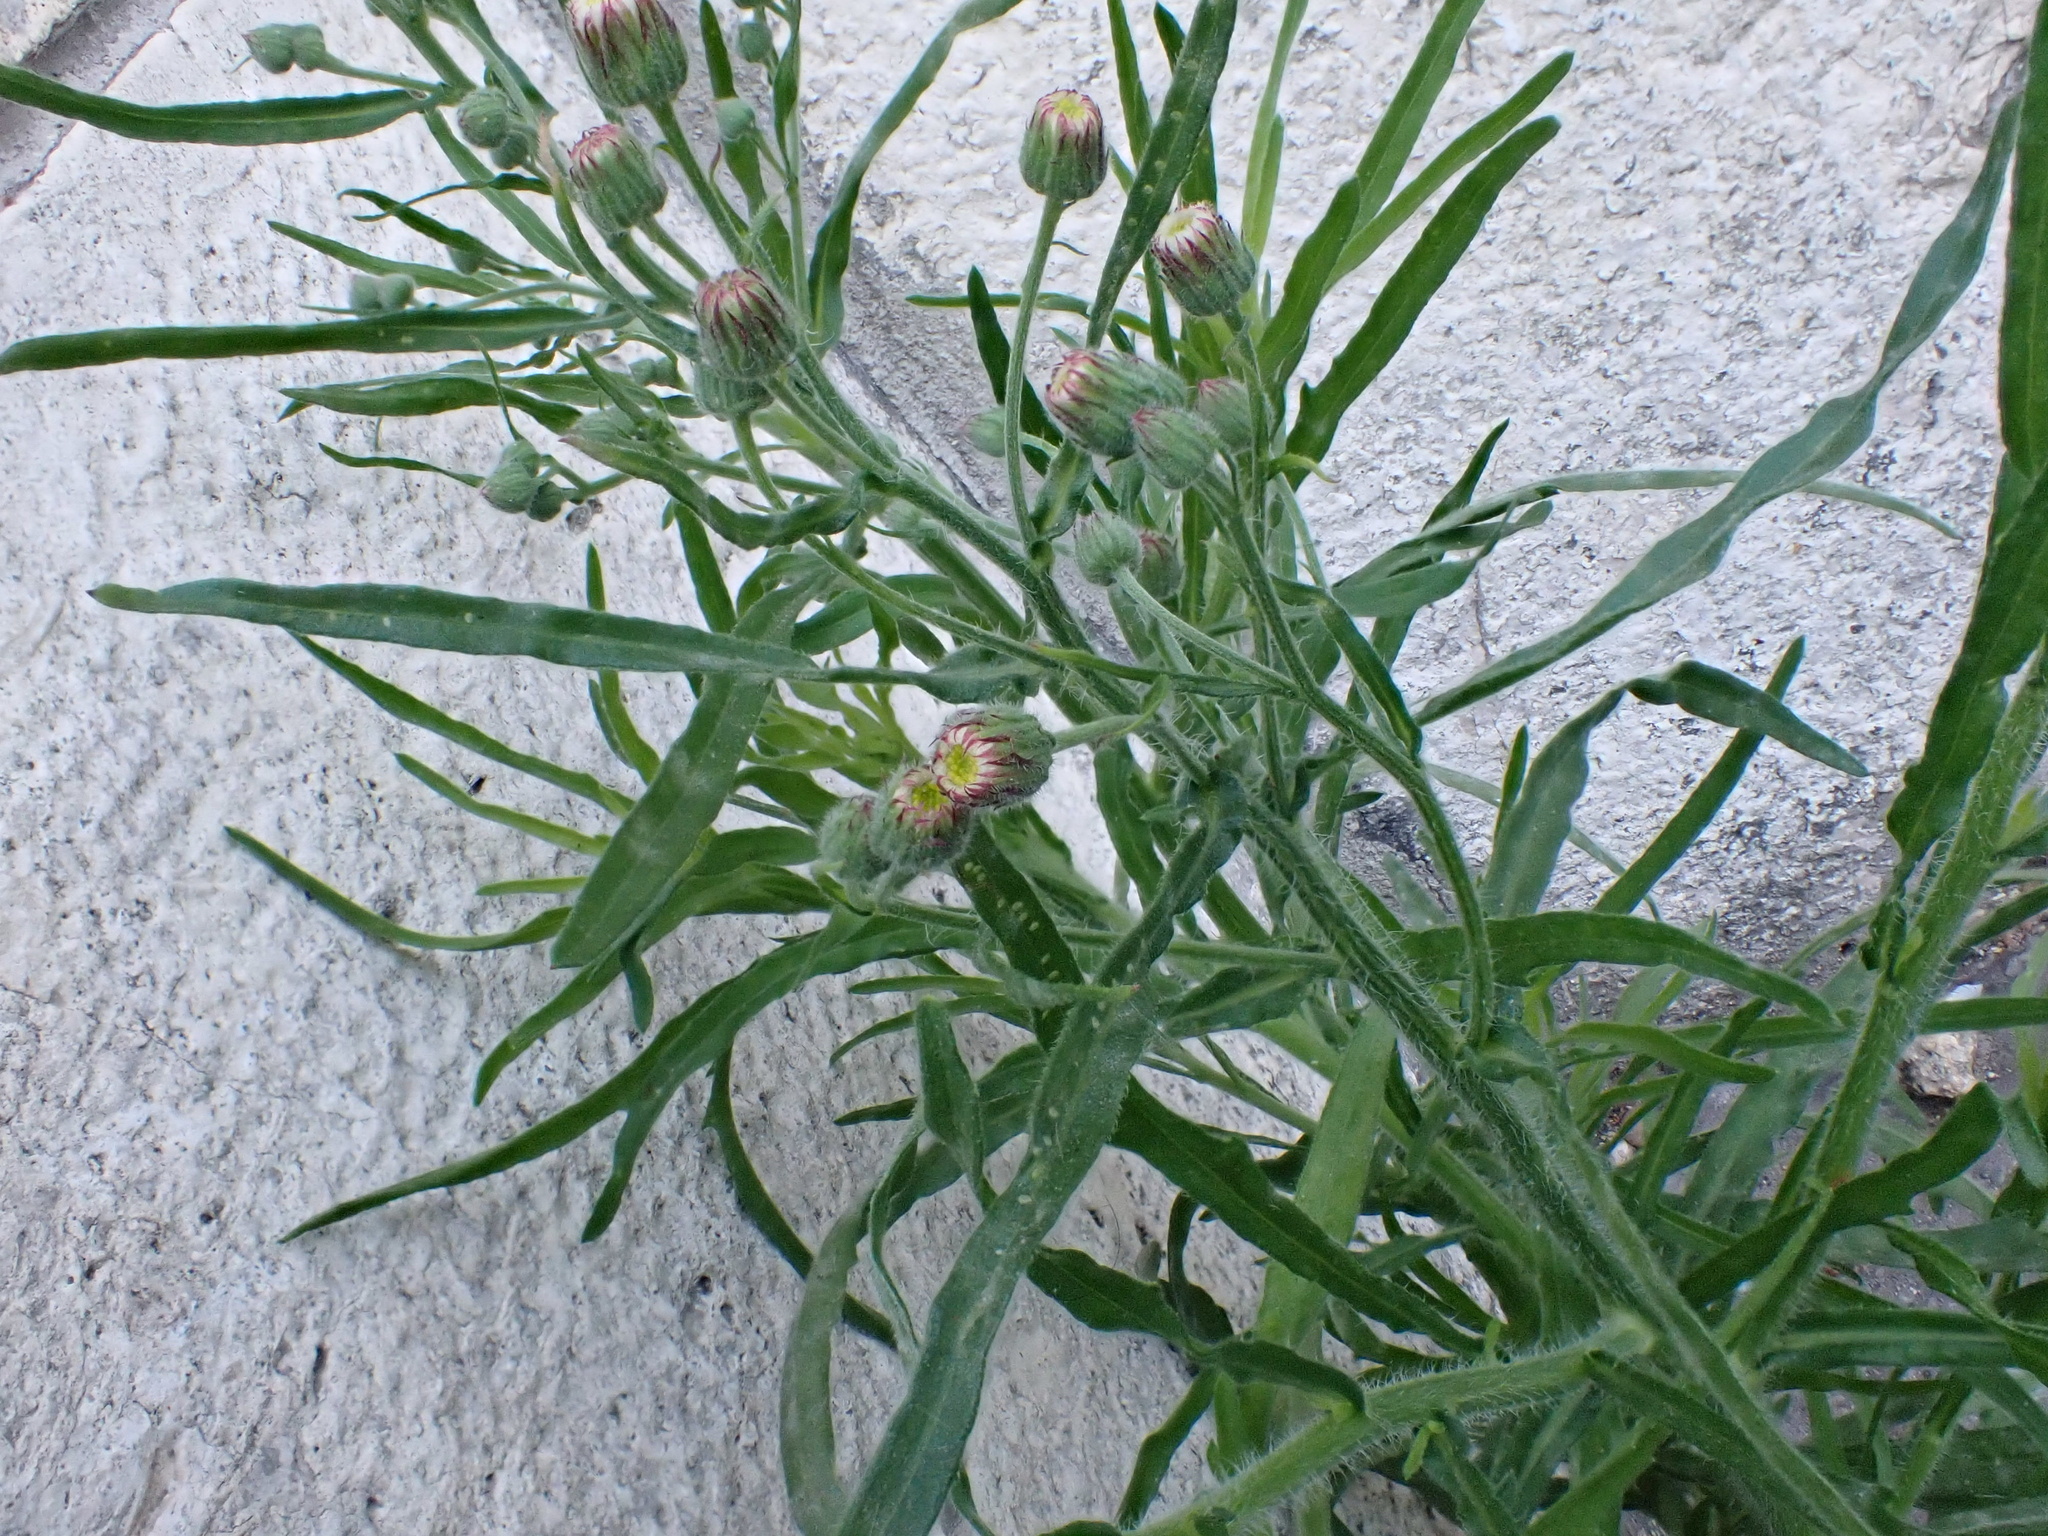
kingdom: Plantae
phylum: Tracheophyta
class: Magnoliopsida
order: Asterales
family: Asteraceae
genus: Erigeron
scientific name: Erigeron bonariensis
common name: Argentine fleabane
